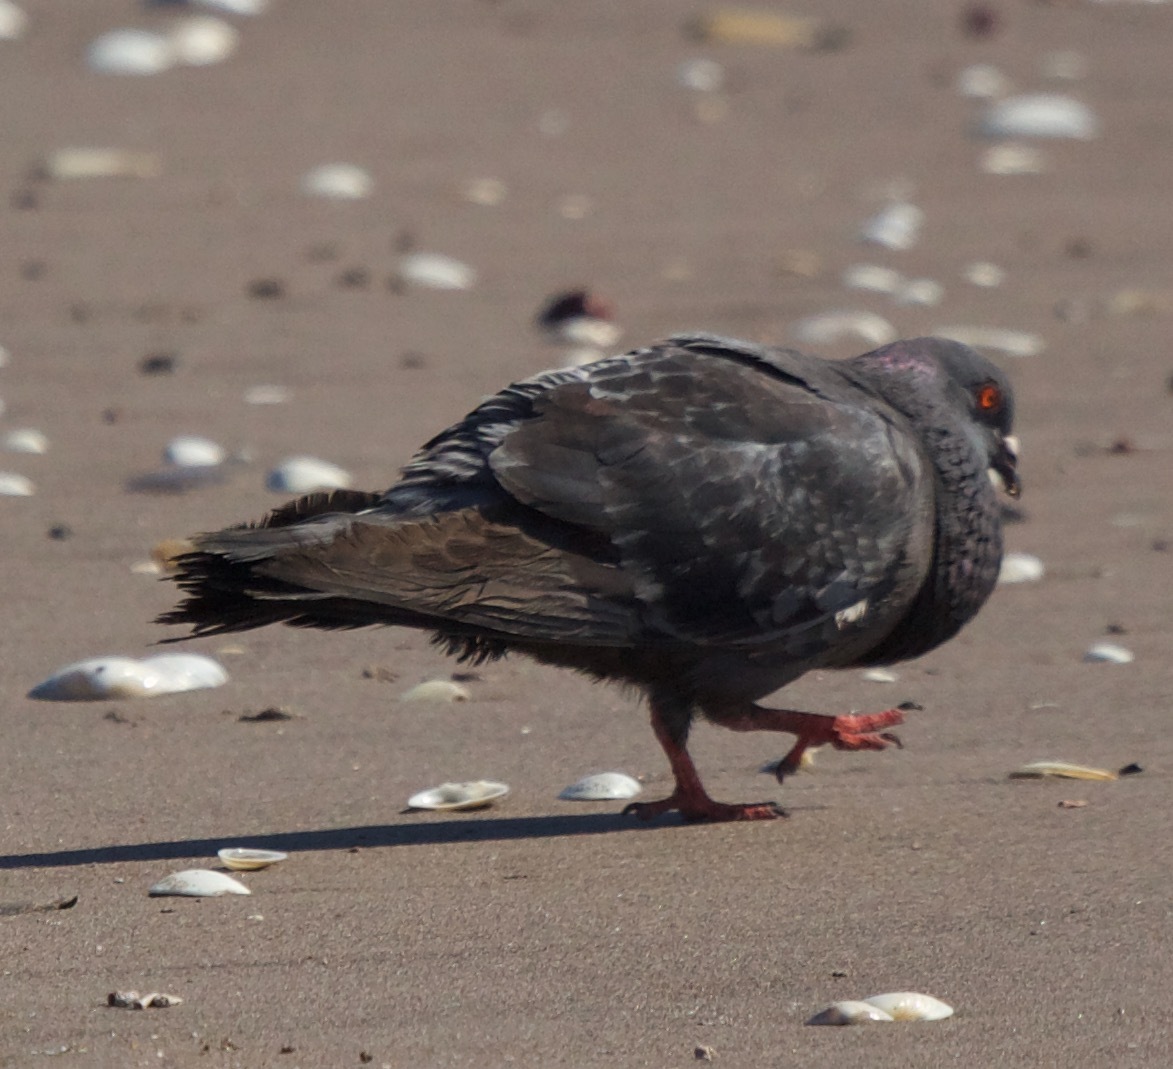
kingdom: Animalia
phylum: Chordata
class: Aves
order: Columbiformes
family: Columbidae
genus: Columba
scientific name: Columba livia
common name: Rock pigeon
